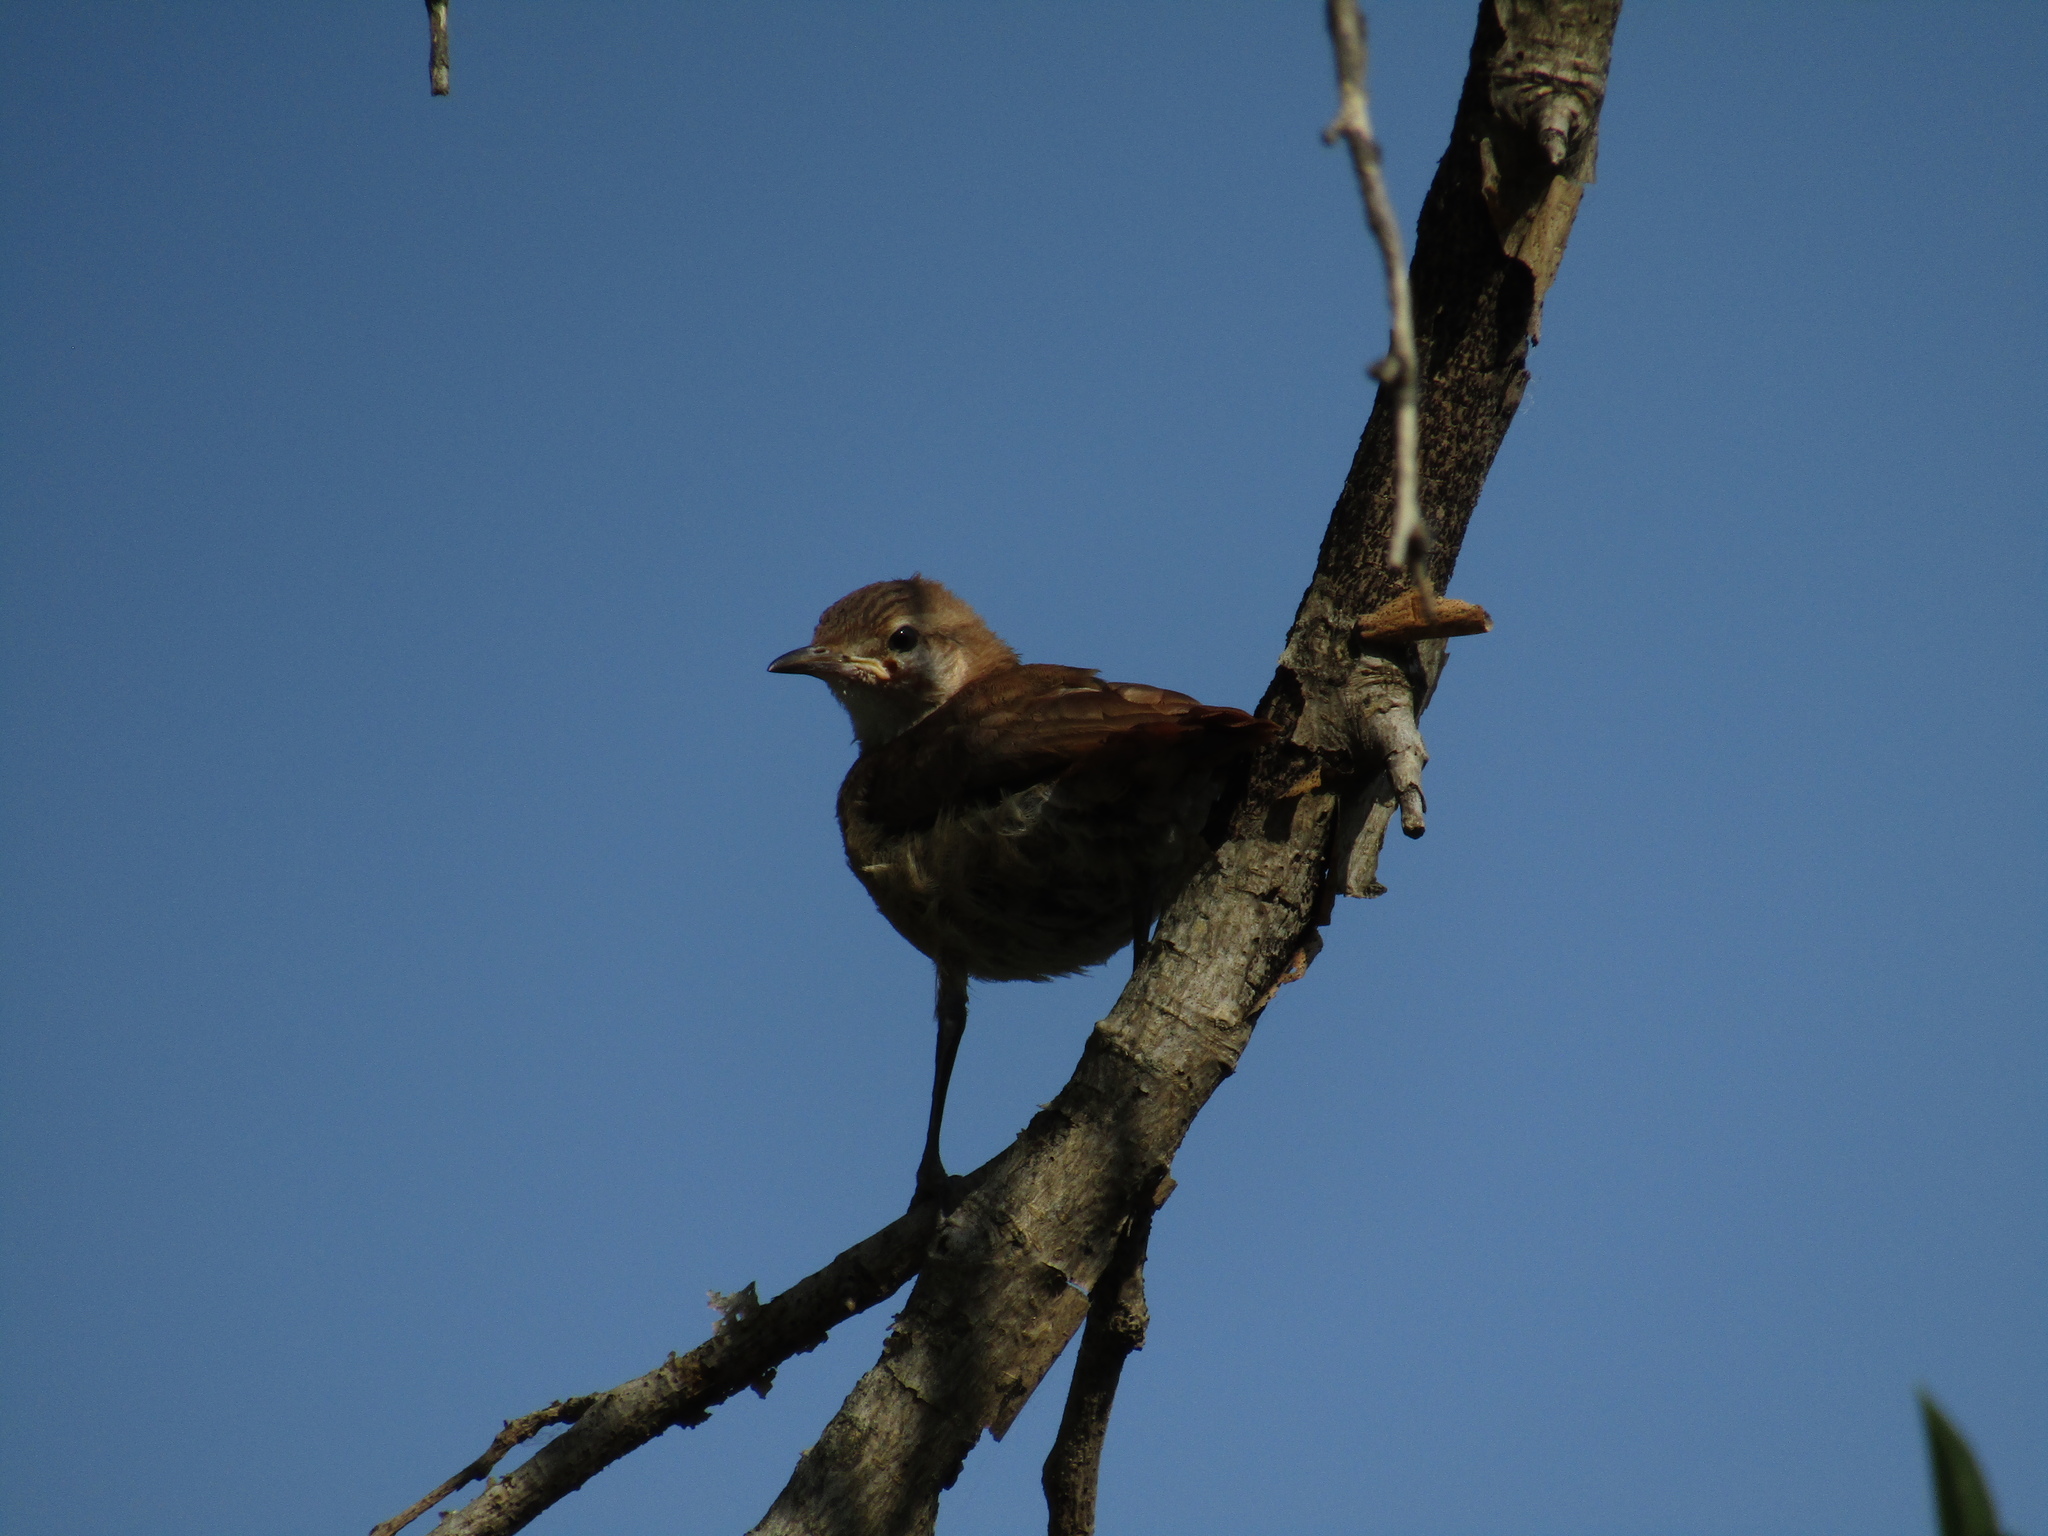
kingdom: Animalia
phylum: Chordata
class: Aves
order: Passeriformes
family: Furnariidae
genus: Furnarius
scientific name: Furnarius rufus
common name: Rufous hornero
